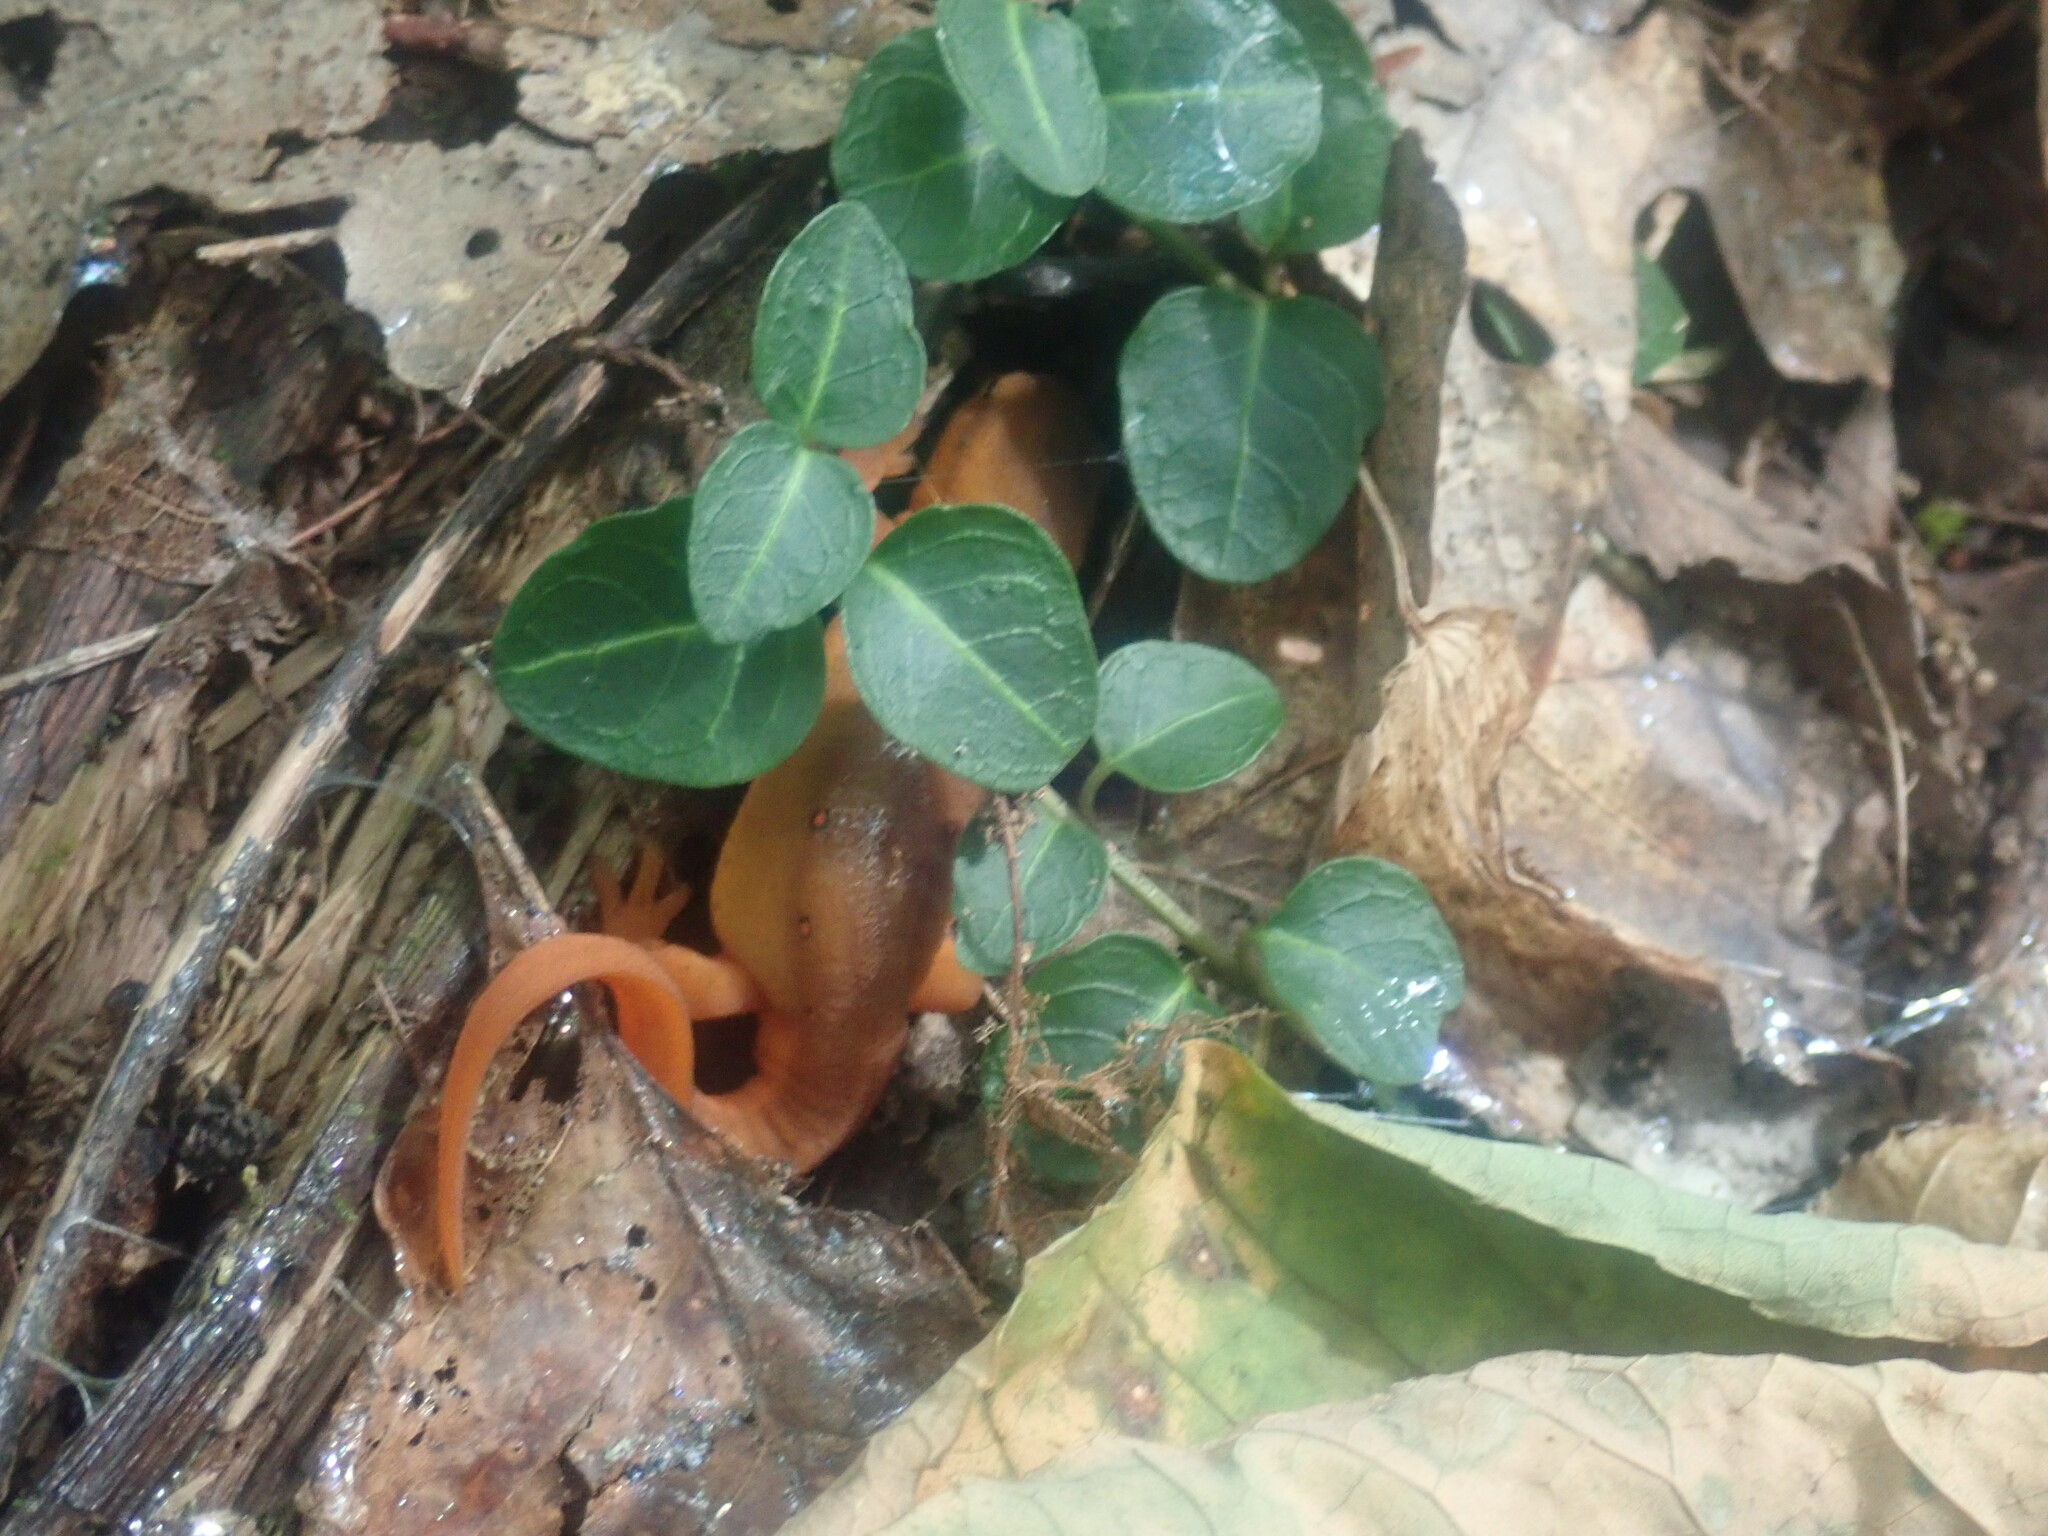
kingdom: Animalia
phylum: Chordata
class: Amphibia
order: Caudata
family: Salamandridae
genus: Notophthalmus
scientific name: Notophthalmus viridescens
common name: Eastern newt
